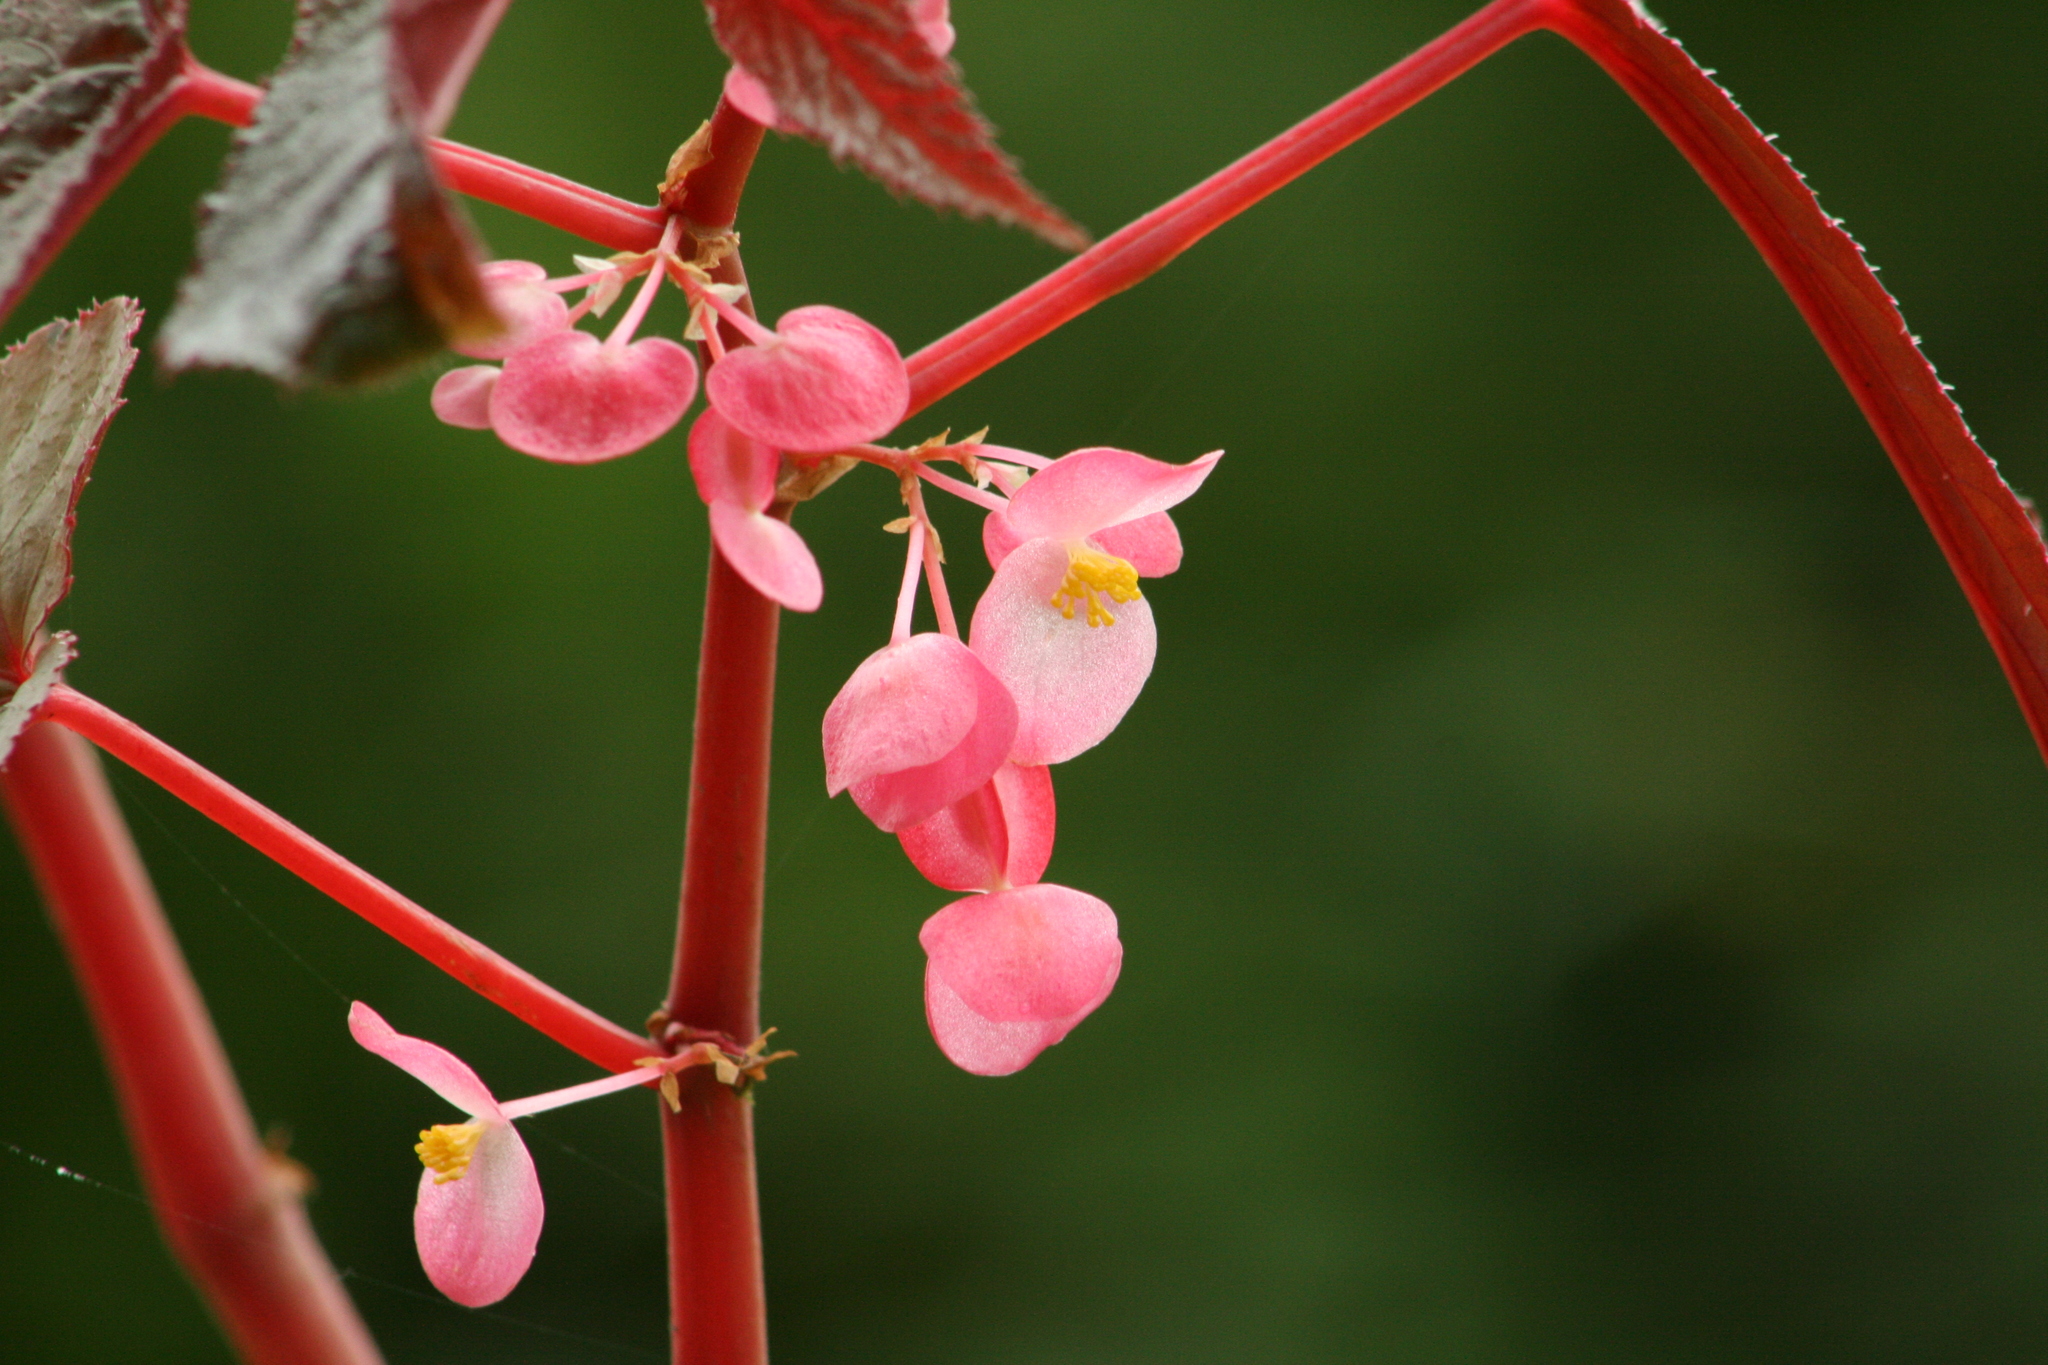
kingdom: Plantae
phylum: Tracheophyta
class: Magnoliopsida
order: Cucurbitales
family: Begoniaceae
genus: Begonia
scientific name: Begonia dipetala
